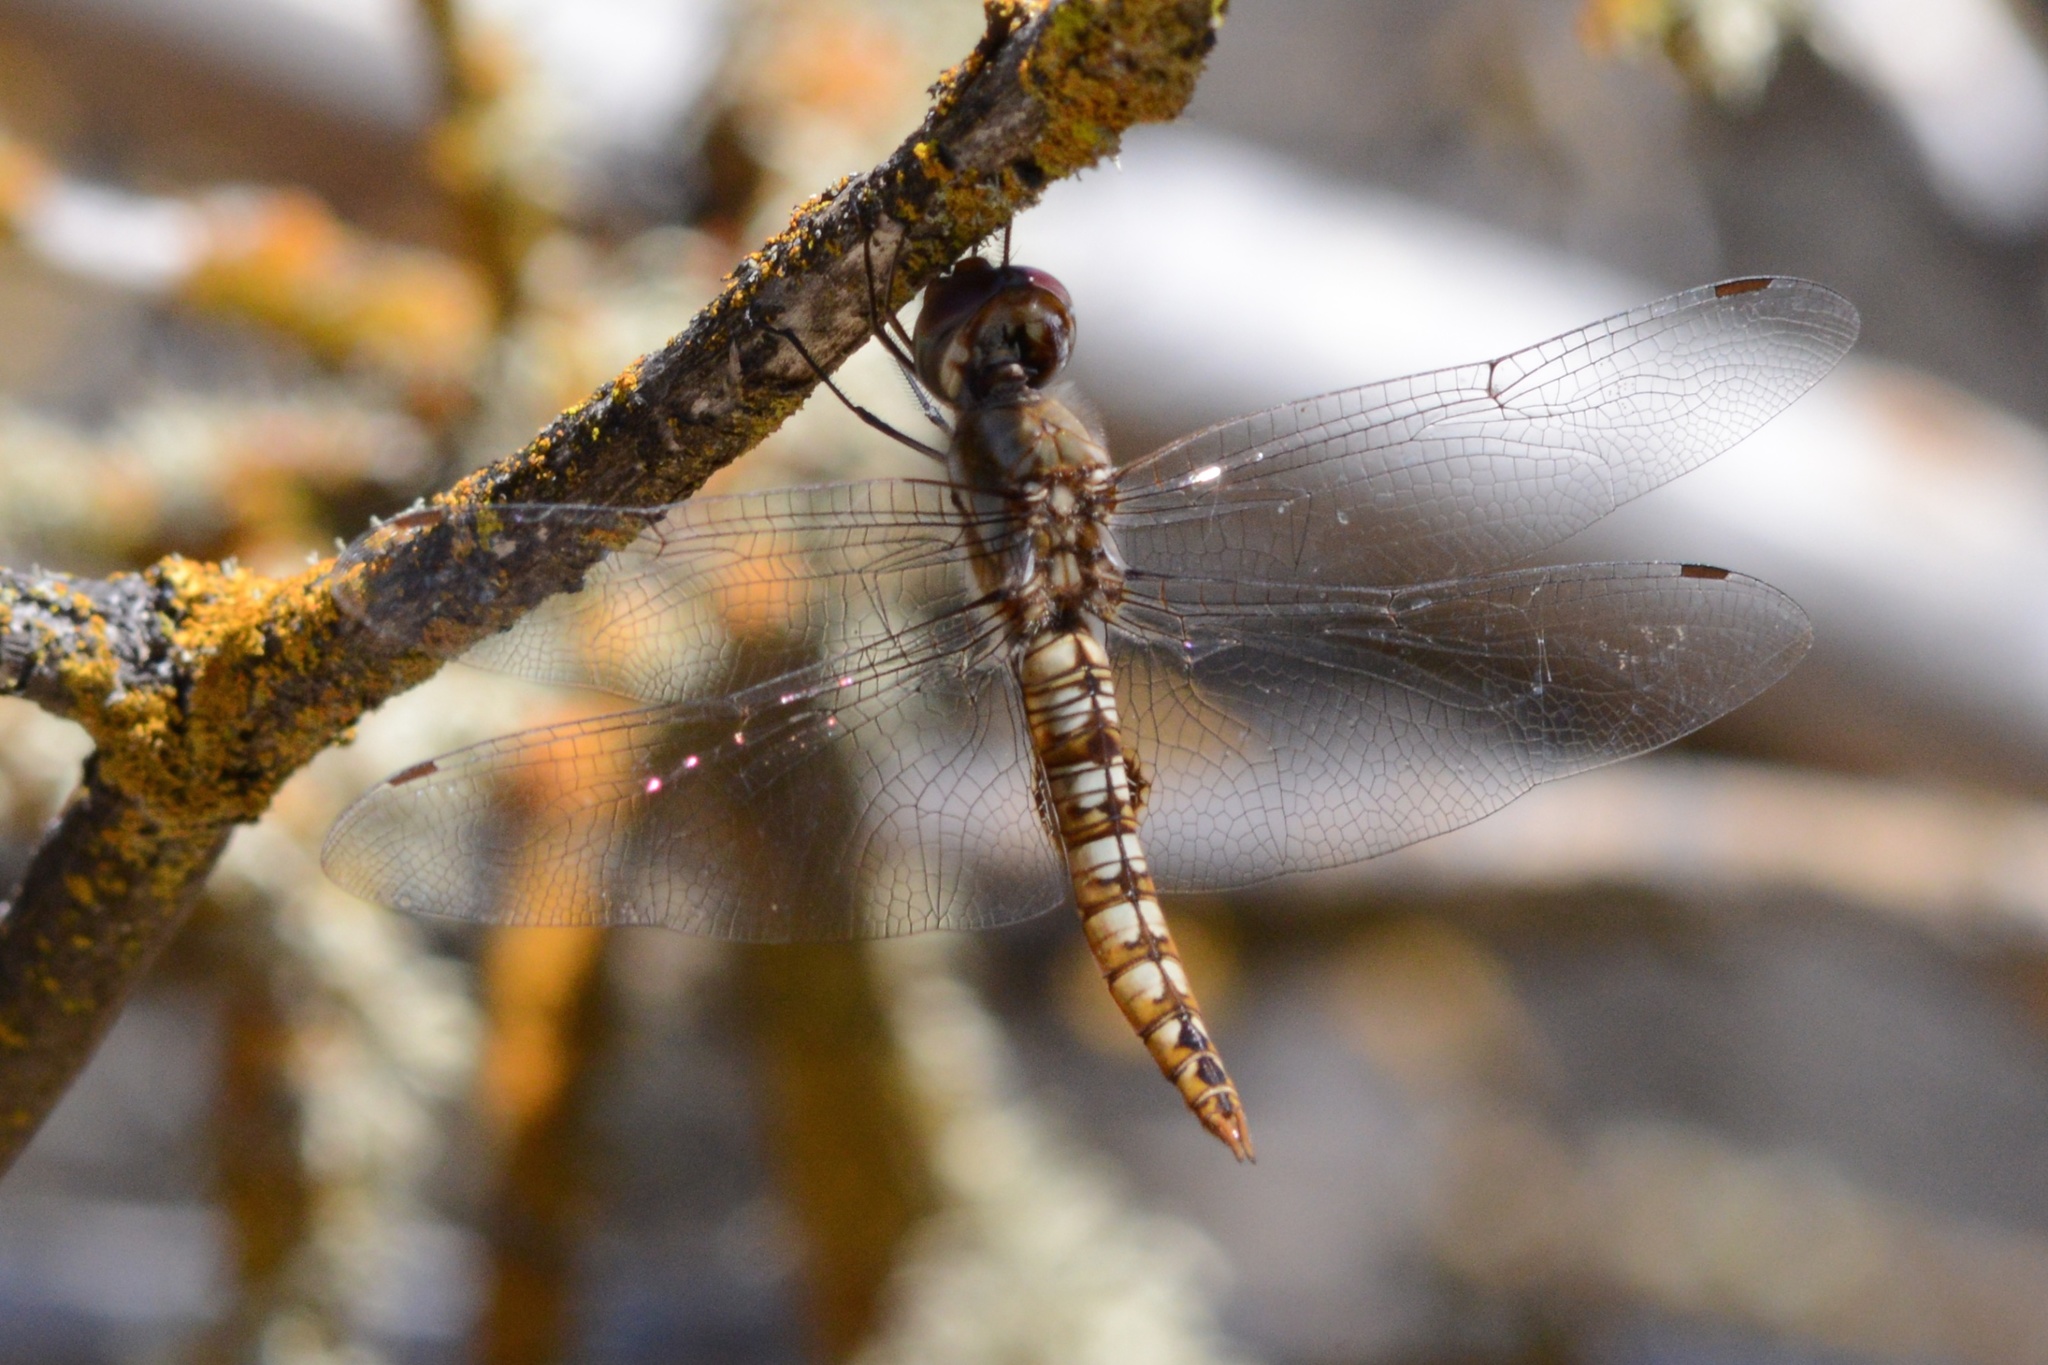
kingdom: Animalia
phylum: Arthropoda
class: Insecta
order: Odonata
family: Libellulidae
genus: Pantala
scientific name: Pantala hymenaea
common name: Spot-winged glider
